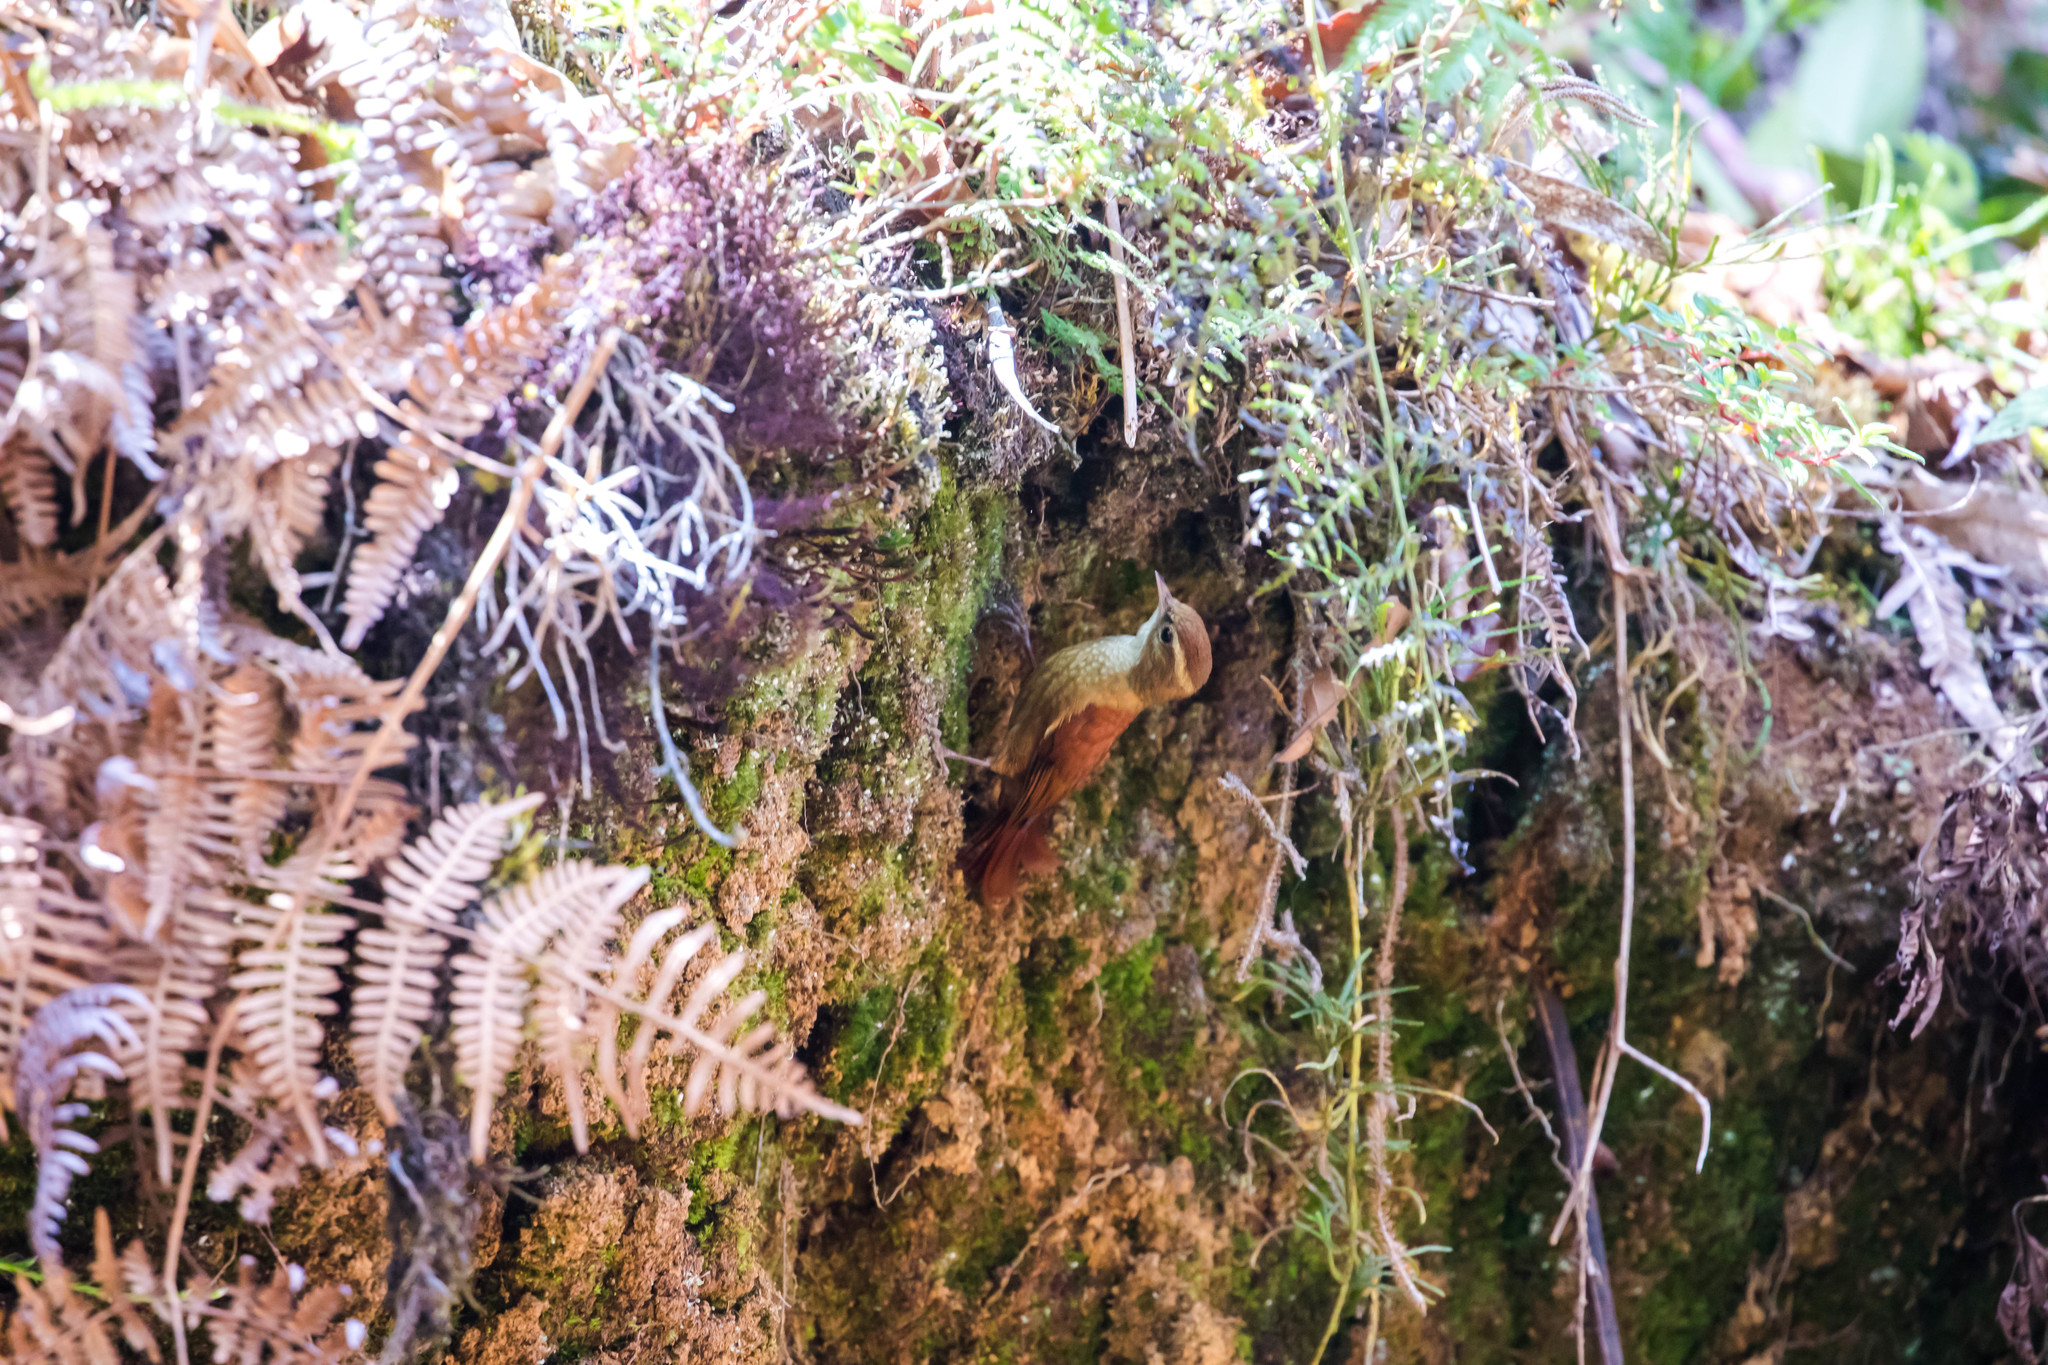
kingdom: Animalia
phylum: Chordata
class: Aves
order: Passeriformes
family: Furnariidae
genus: Margarornis
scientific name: Margarornis rubiginosus
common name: Ruddy treerunner
